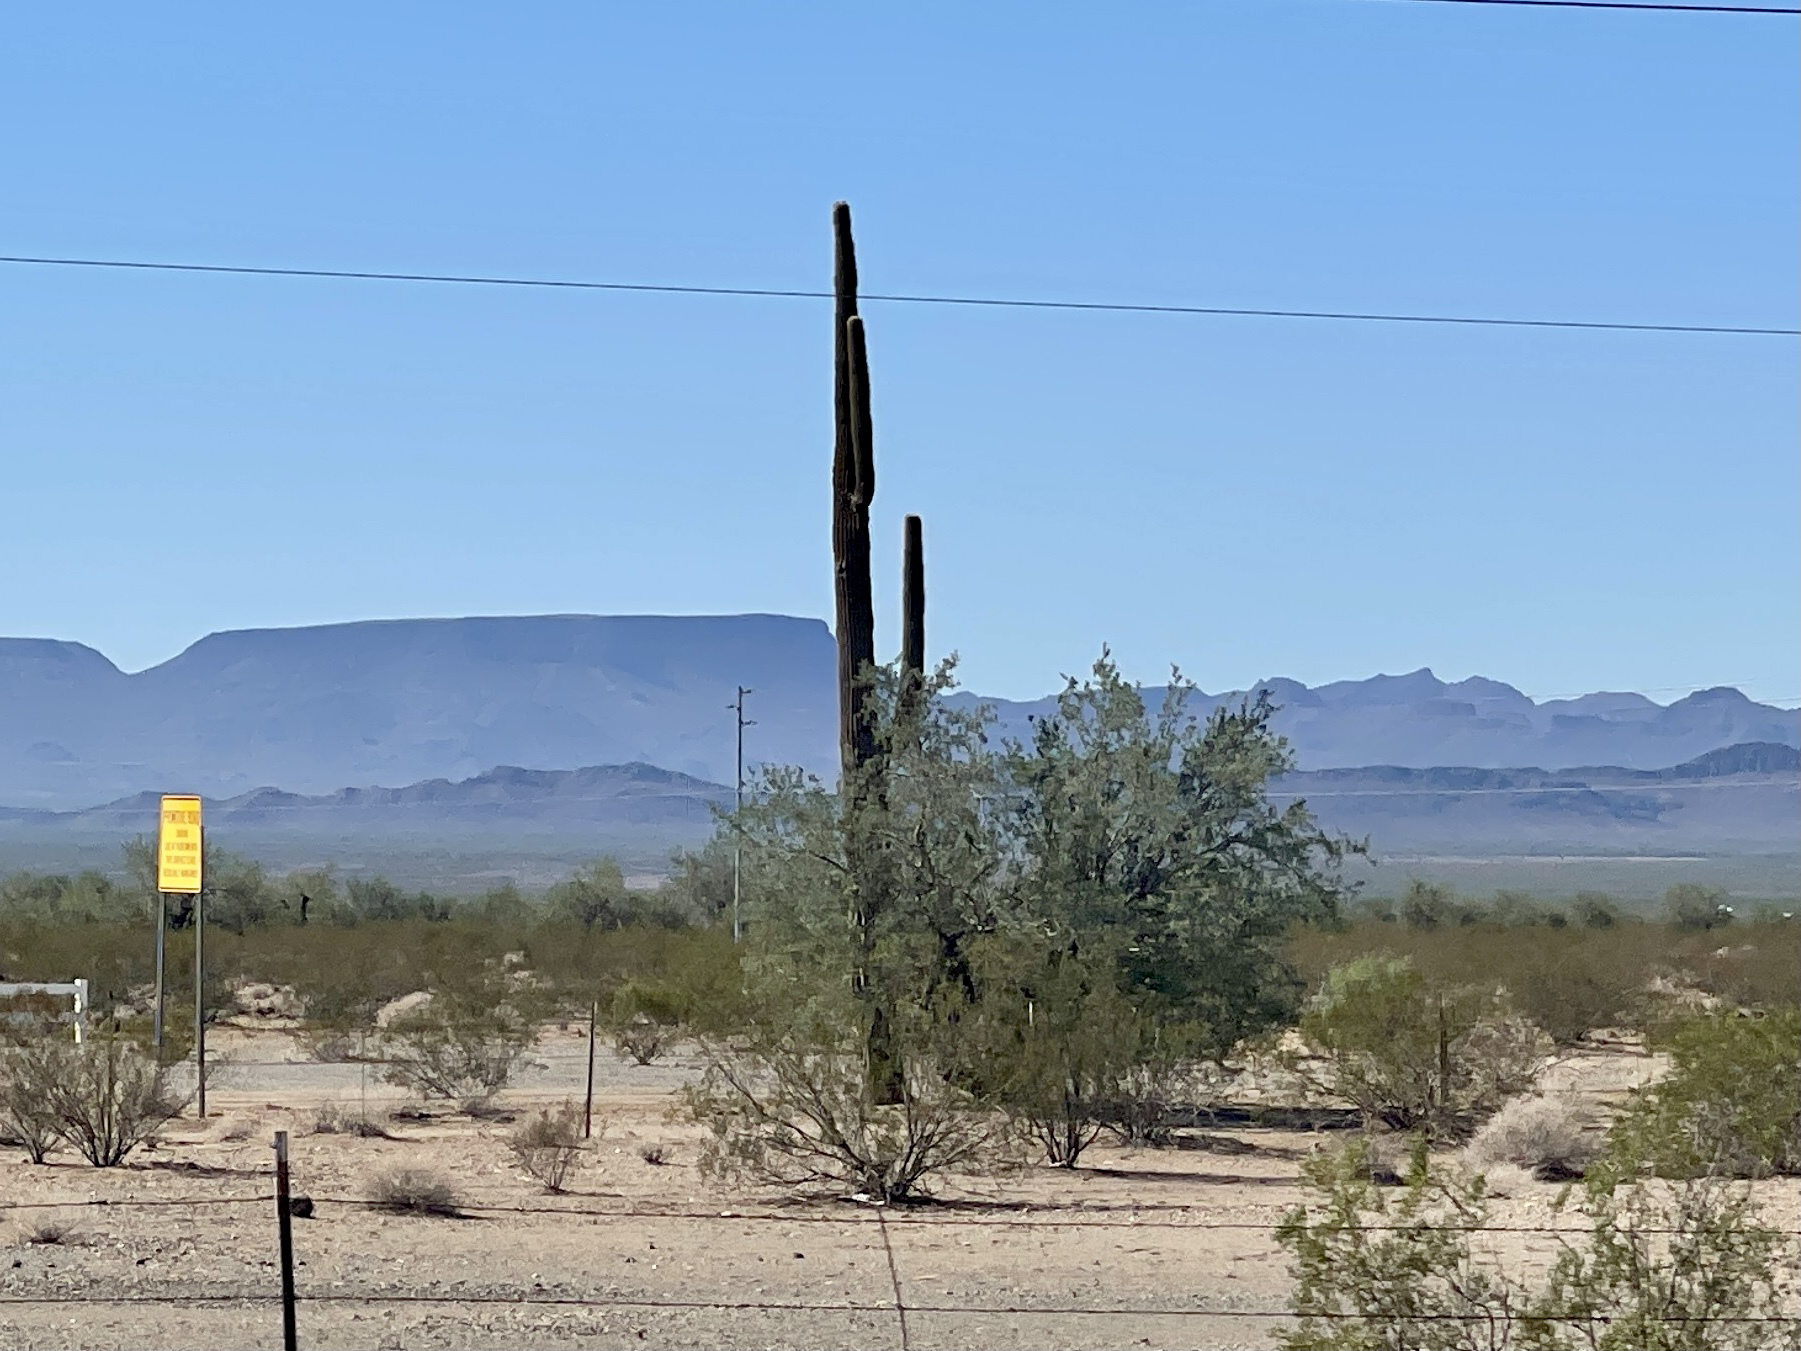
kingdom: Plantae
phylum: Tracheophyta
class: Magnoliopsida
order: Caryophyllales
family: Cactaceae
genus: Carnegiea
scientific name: Carnegiea gigantea
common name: Saguaro
